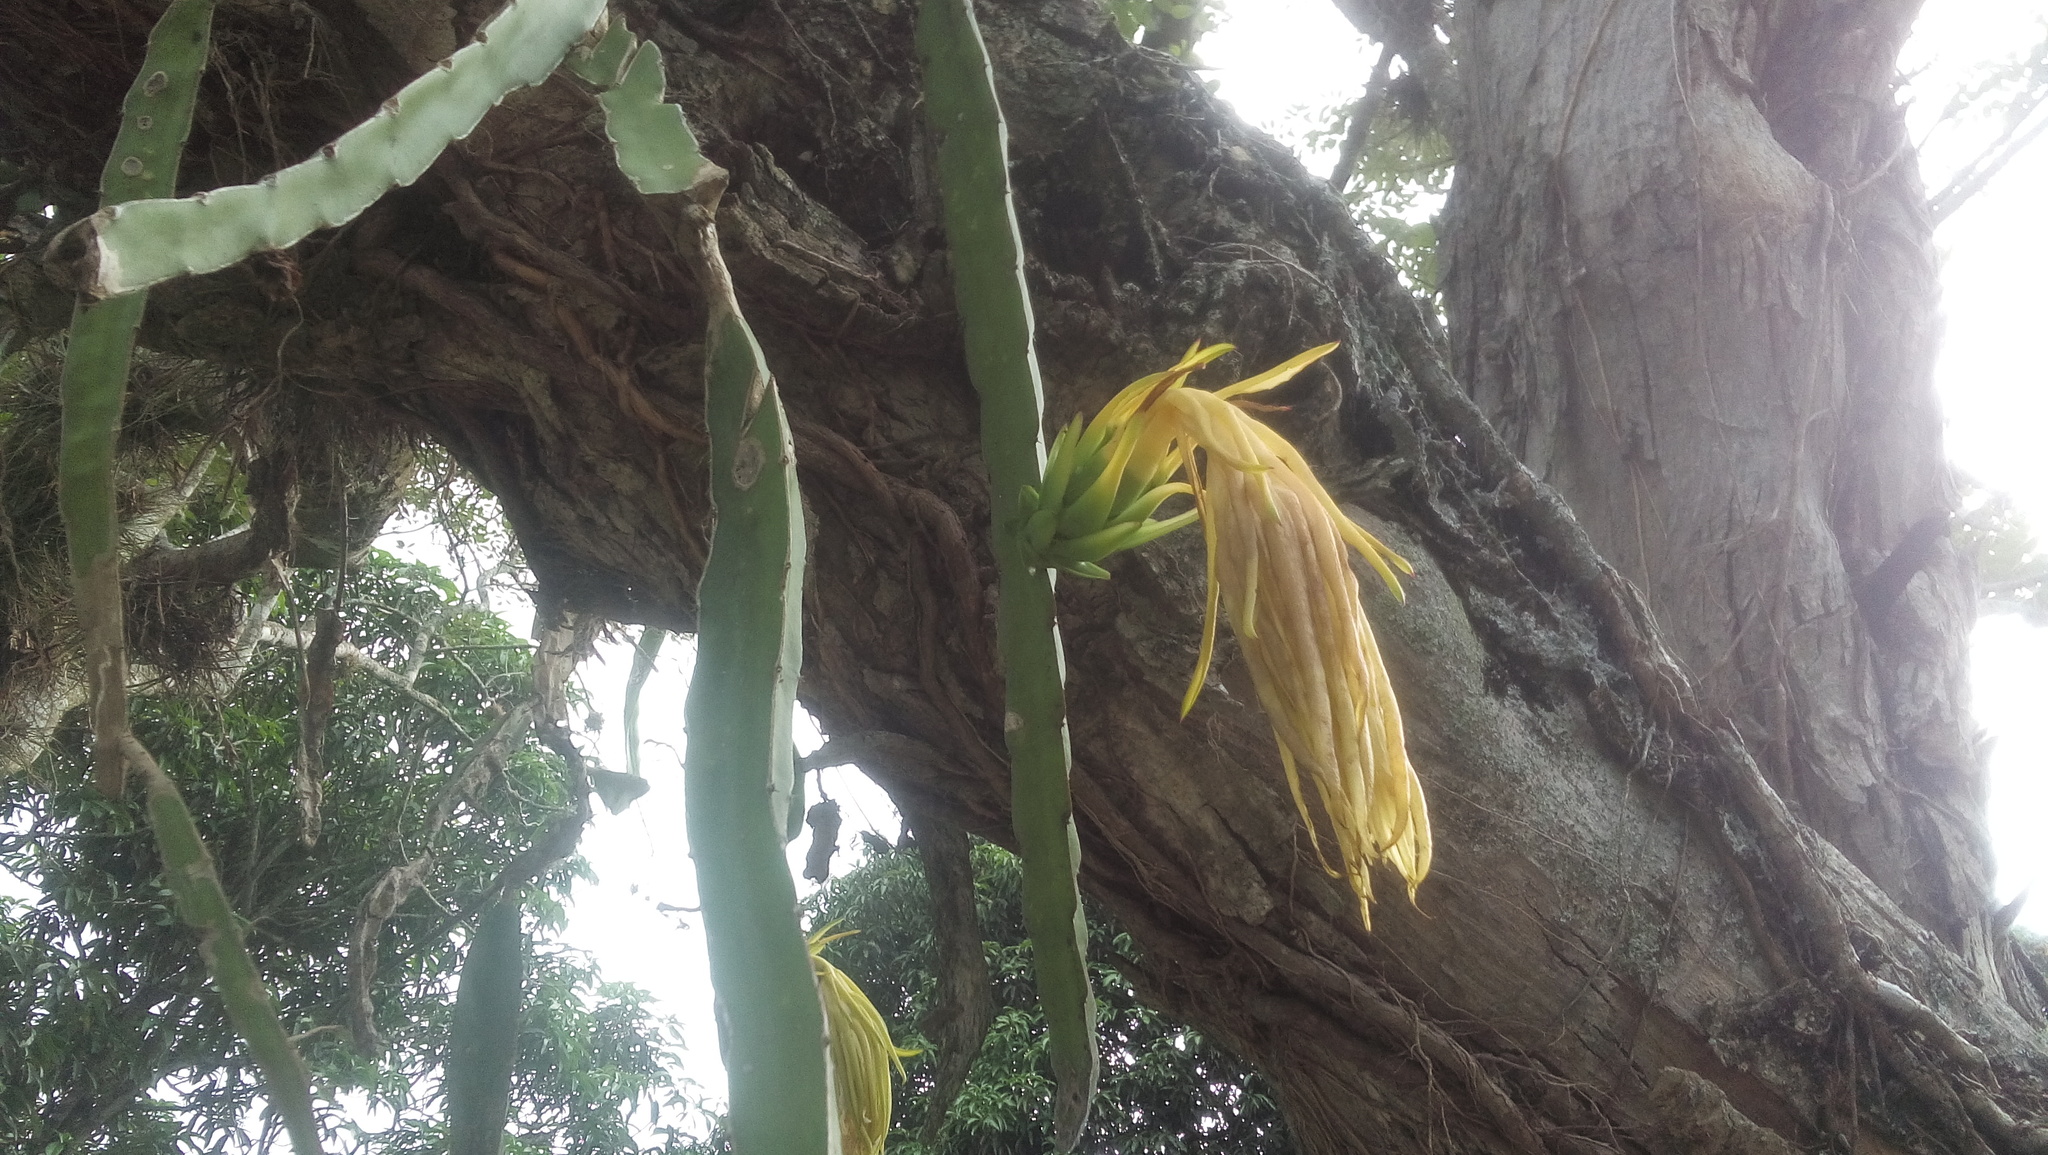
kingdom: Plantae
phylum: Tracheophyta
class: Magnoliopsida
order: Caryophyllales
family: Cactaceae
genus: Selenicereus
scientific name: Selenicereus undatus
